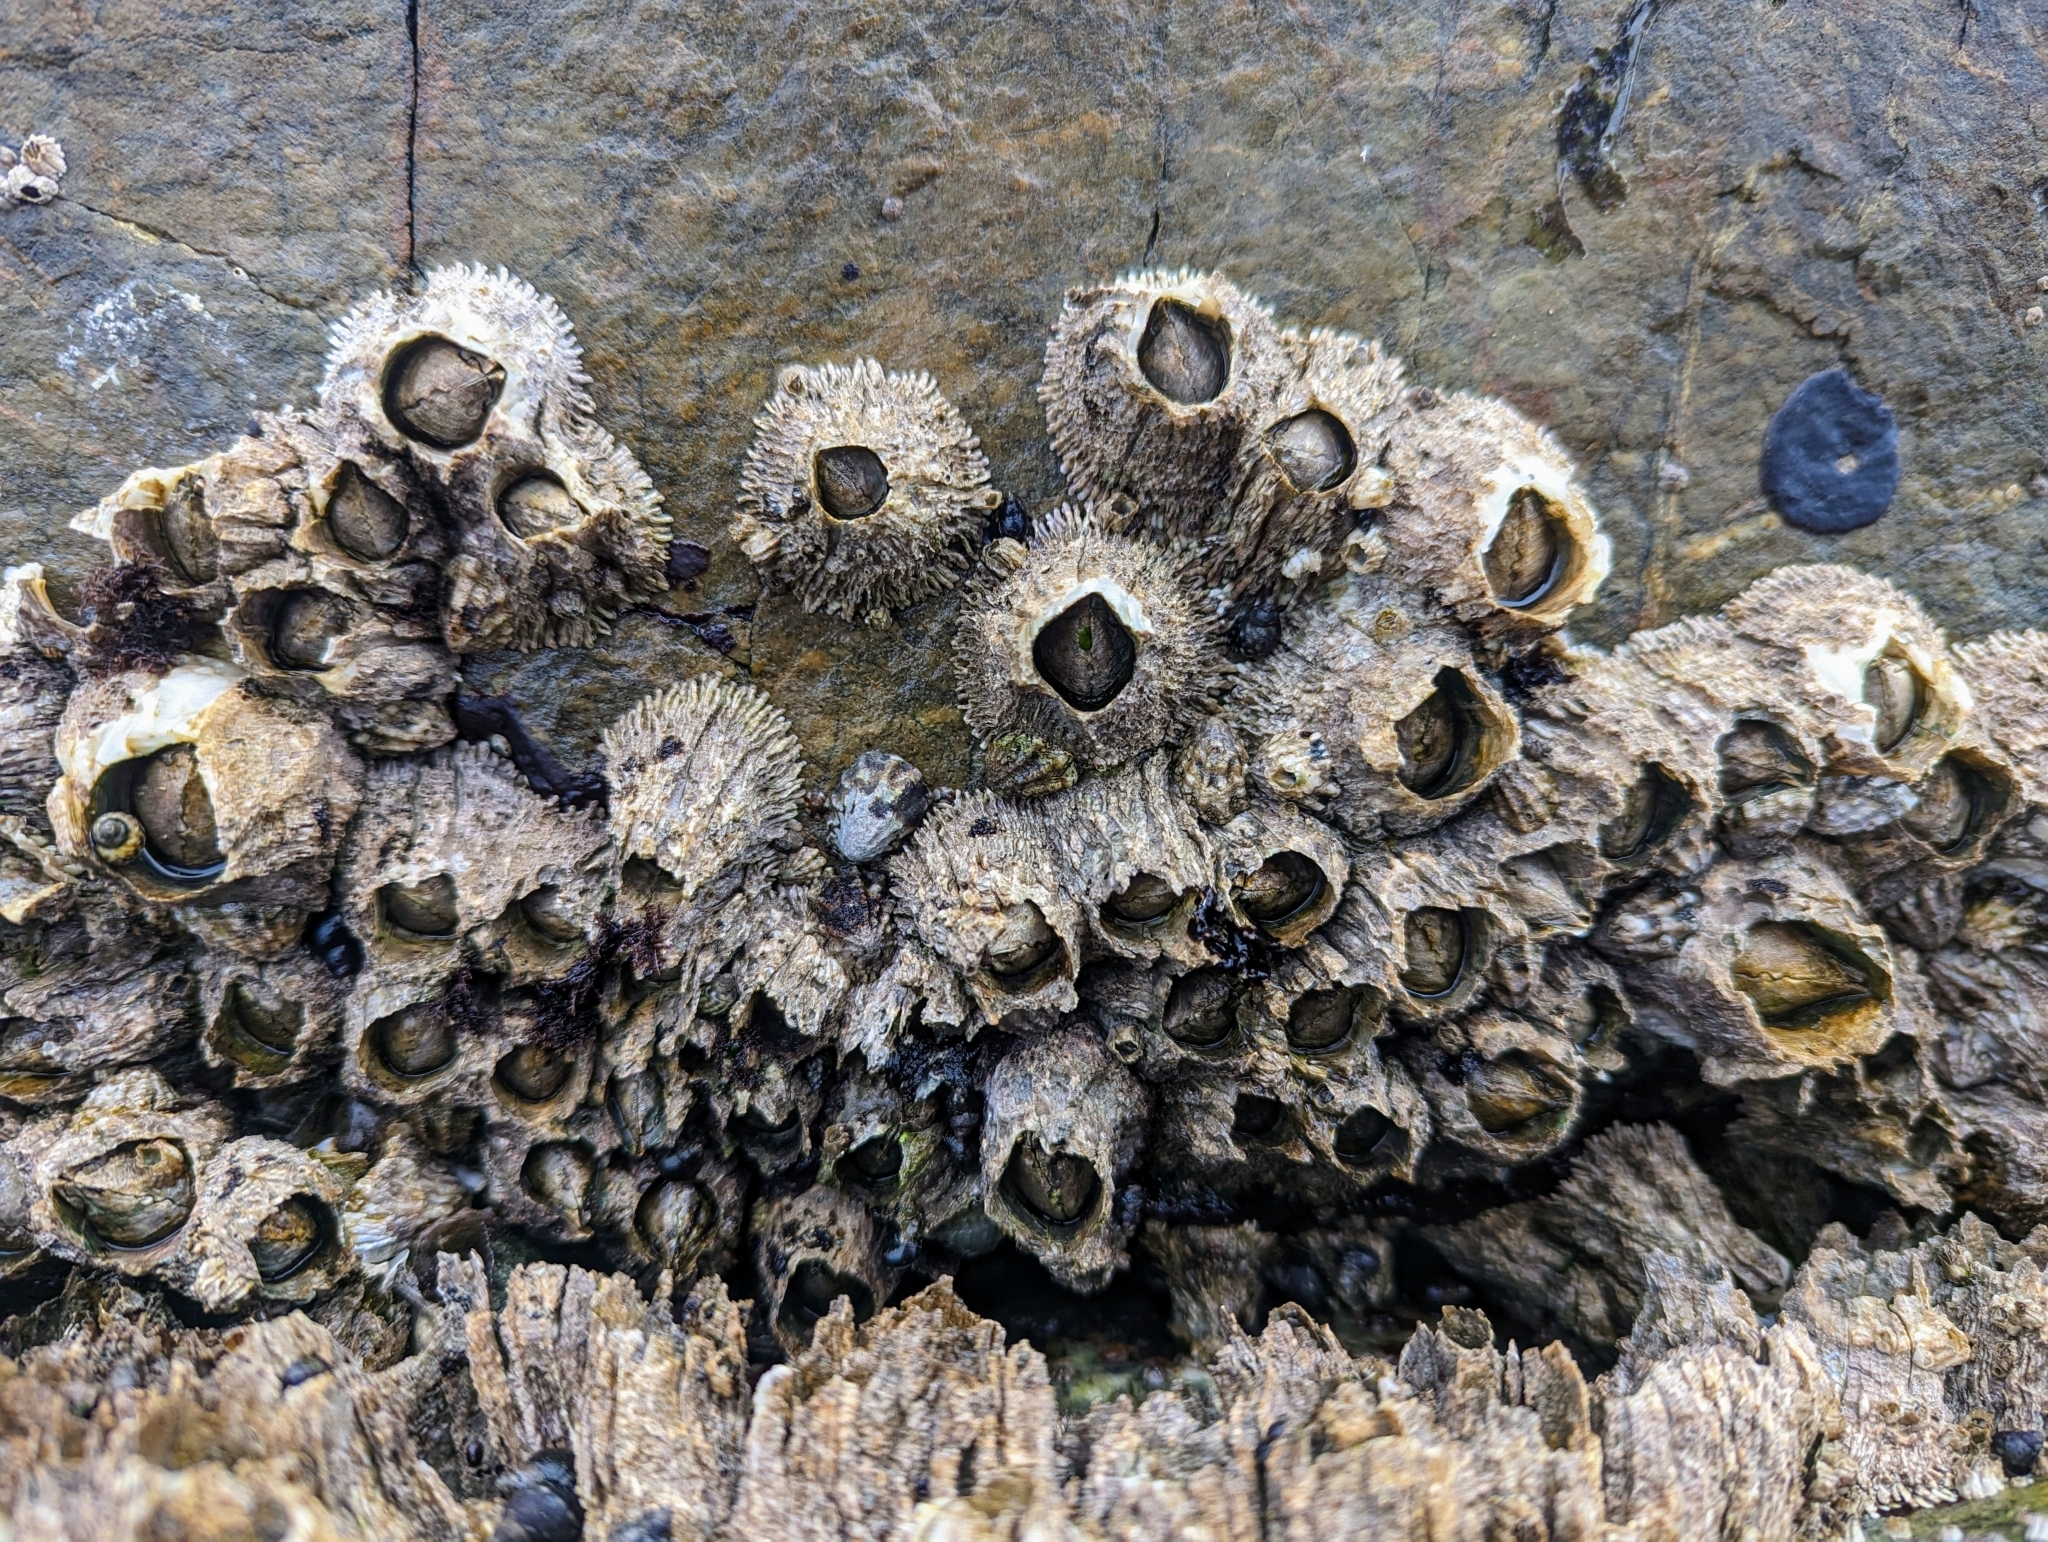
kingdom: Animalia
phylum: Arthropoda
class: Maxillopoda
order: Sessilia
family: Archaeobalanidae
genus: Semibalanus
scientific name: Semibalanus cariosus
